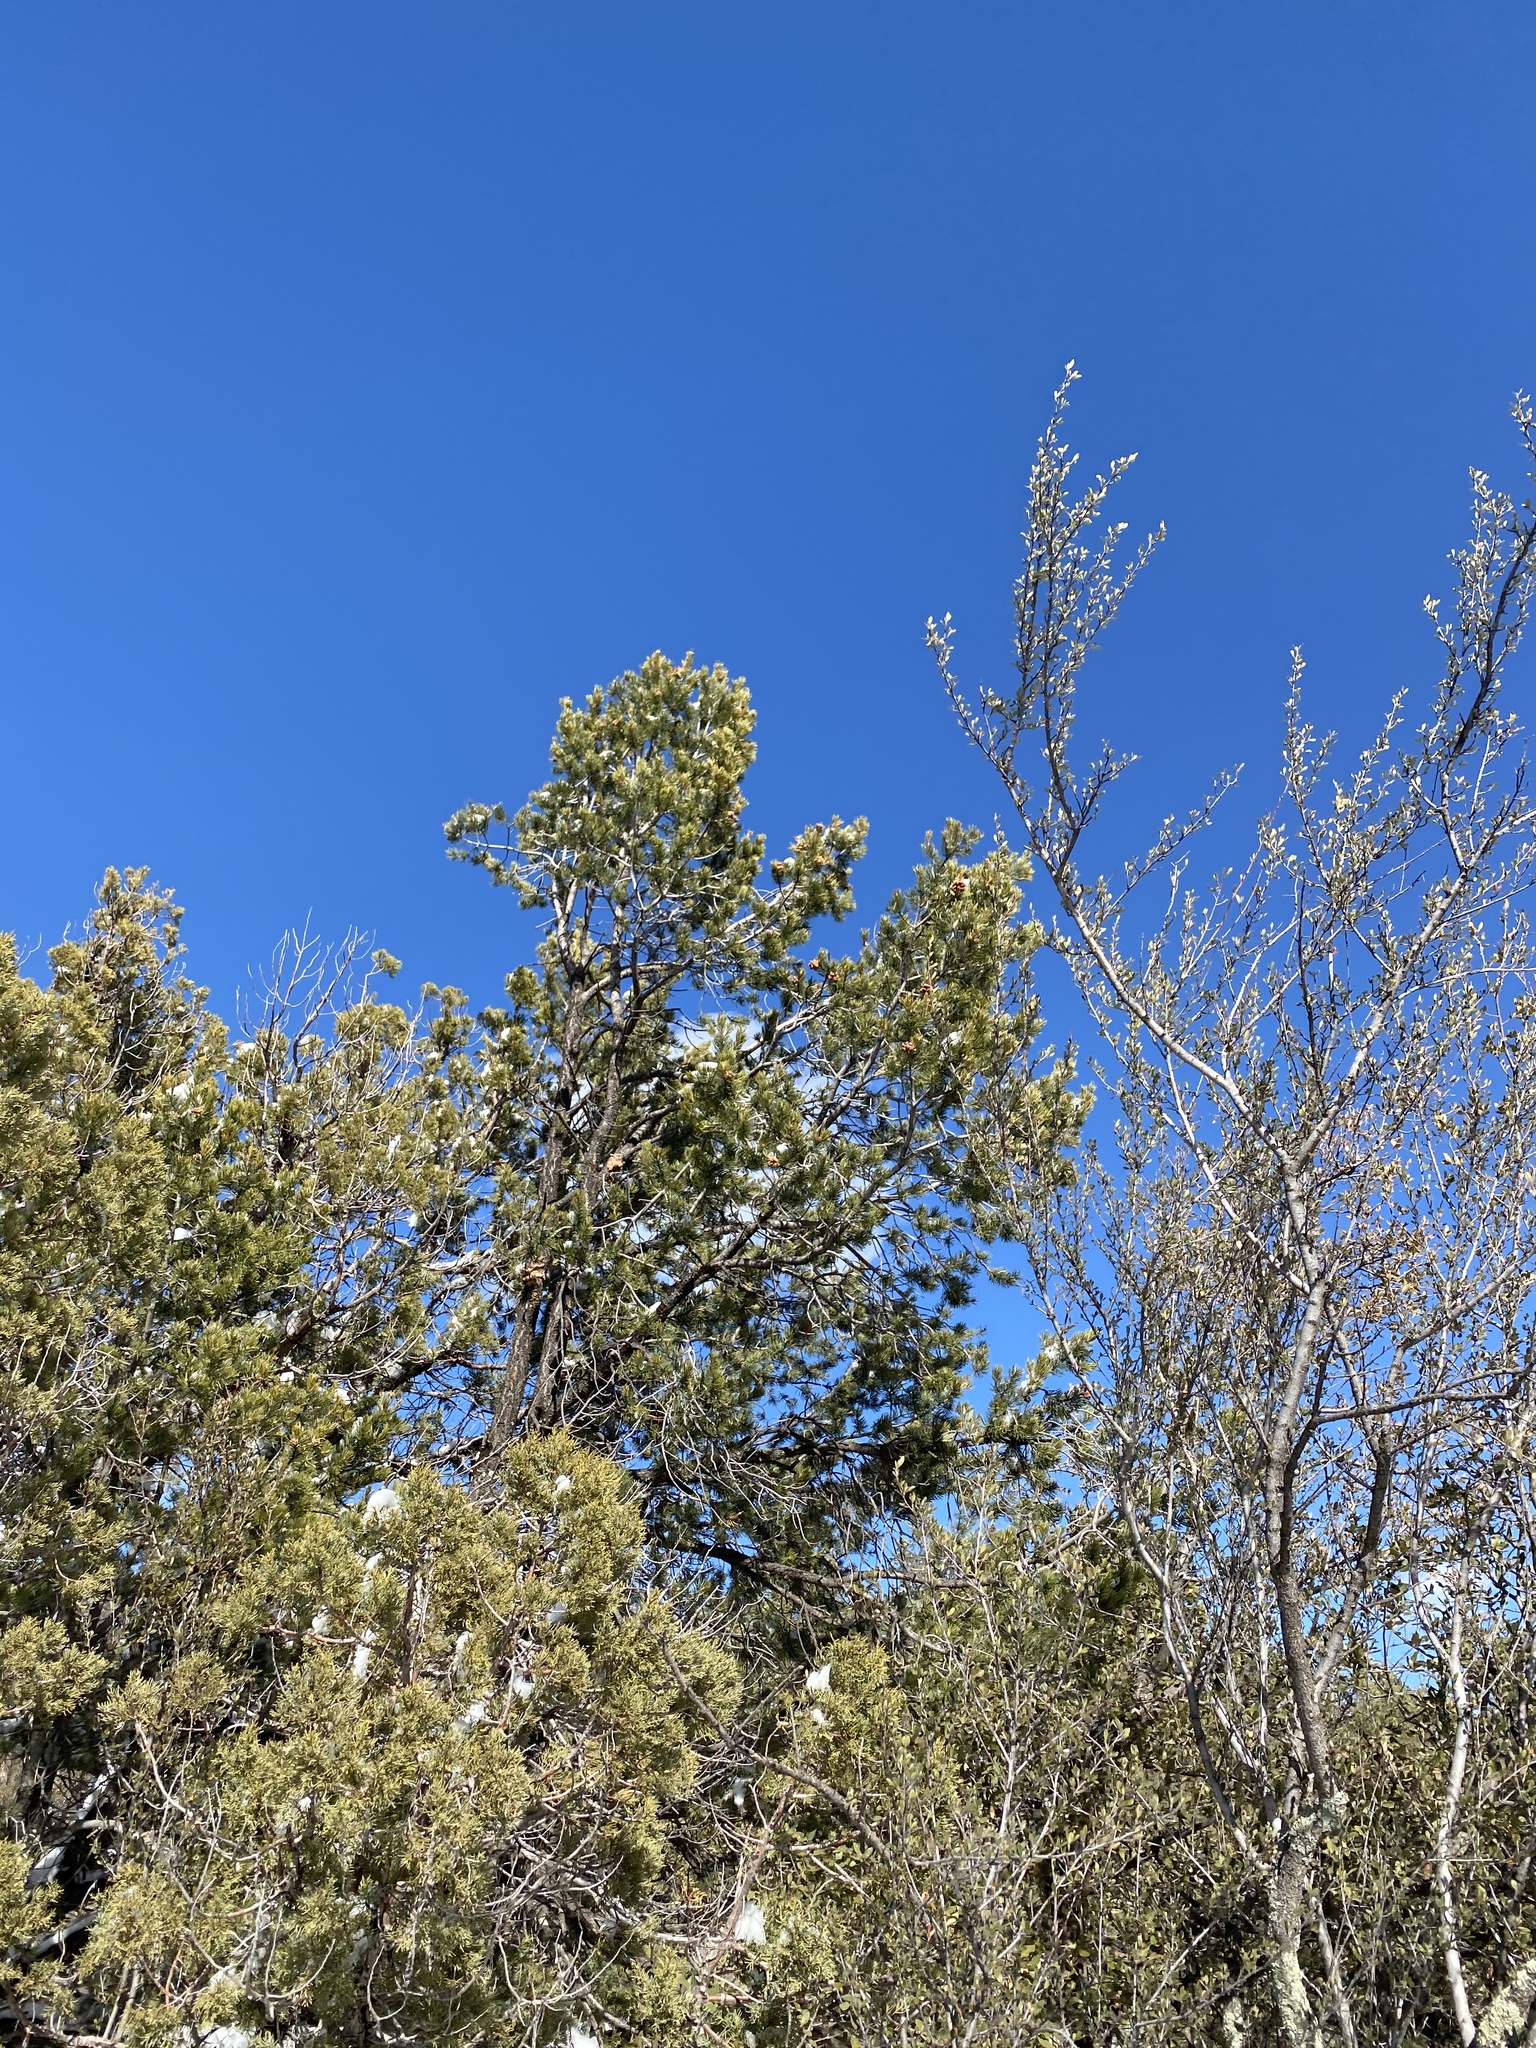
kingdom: Plantae
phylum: Tracheophyta
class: Pinopsida
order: Pinales
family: Pinaceae
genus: Pinus
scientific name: Pinus edulis
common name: Colorado pinyon
